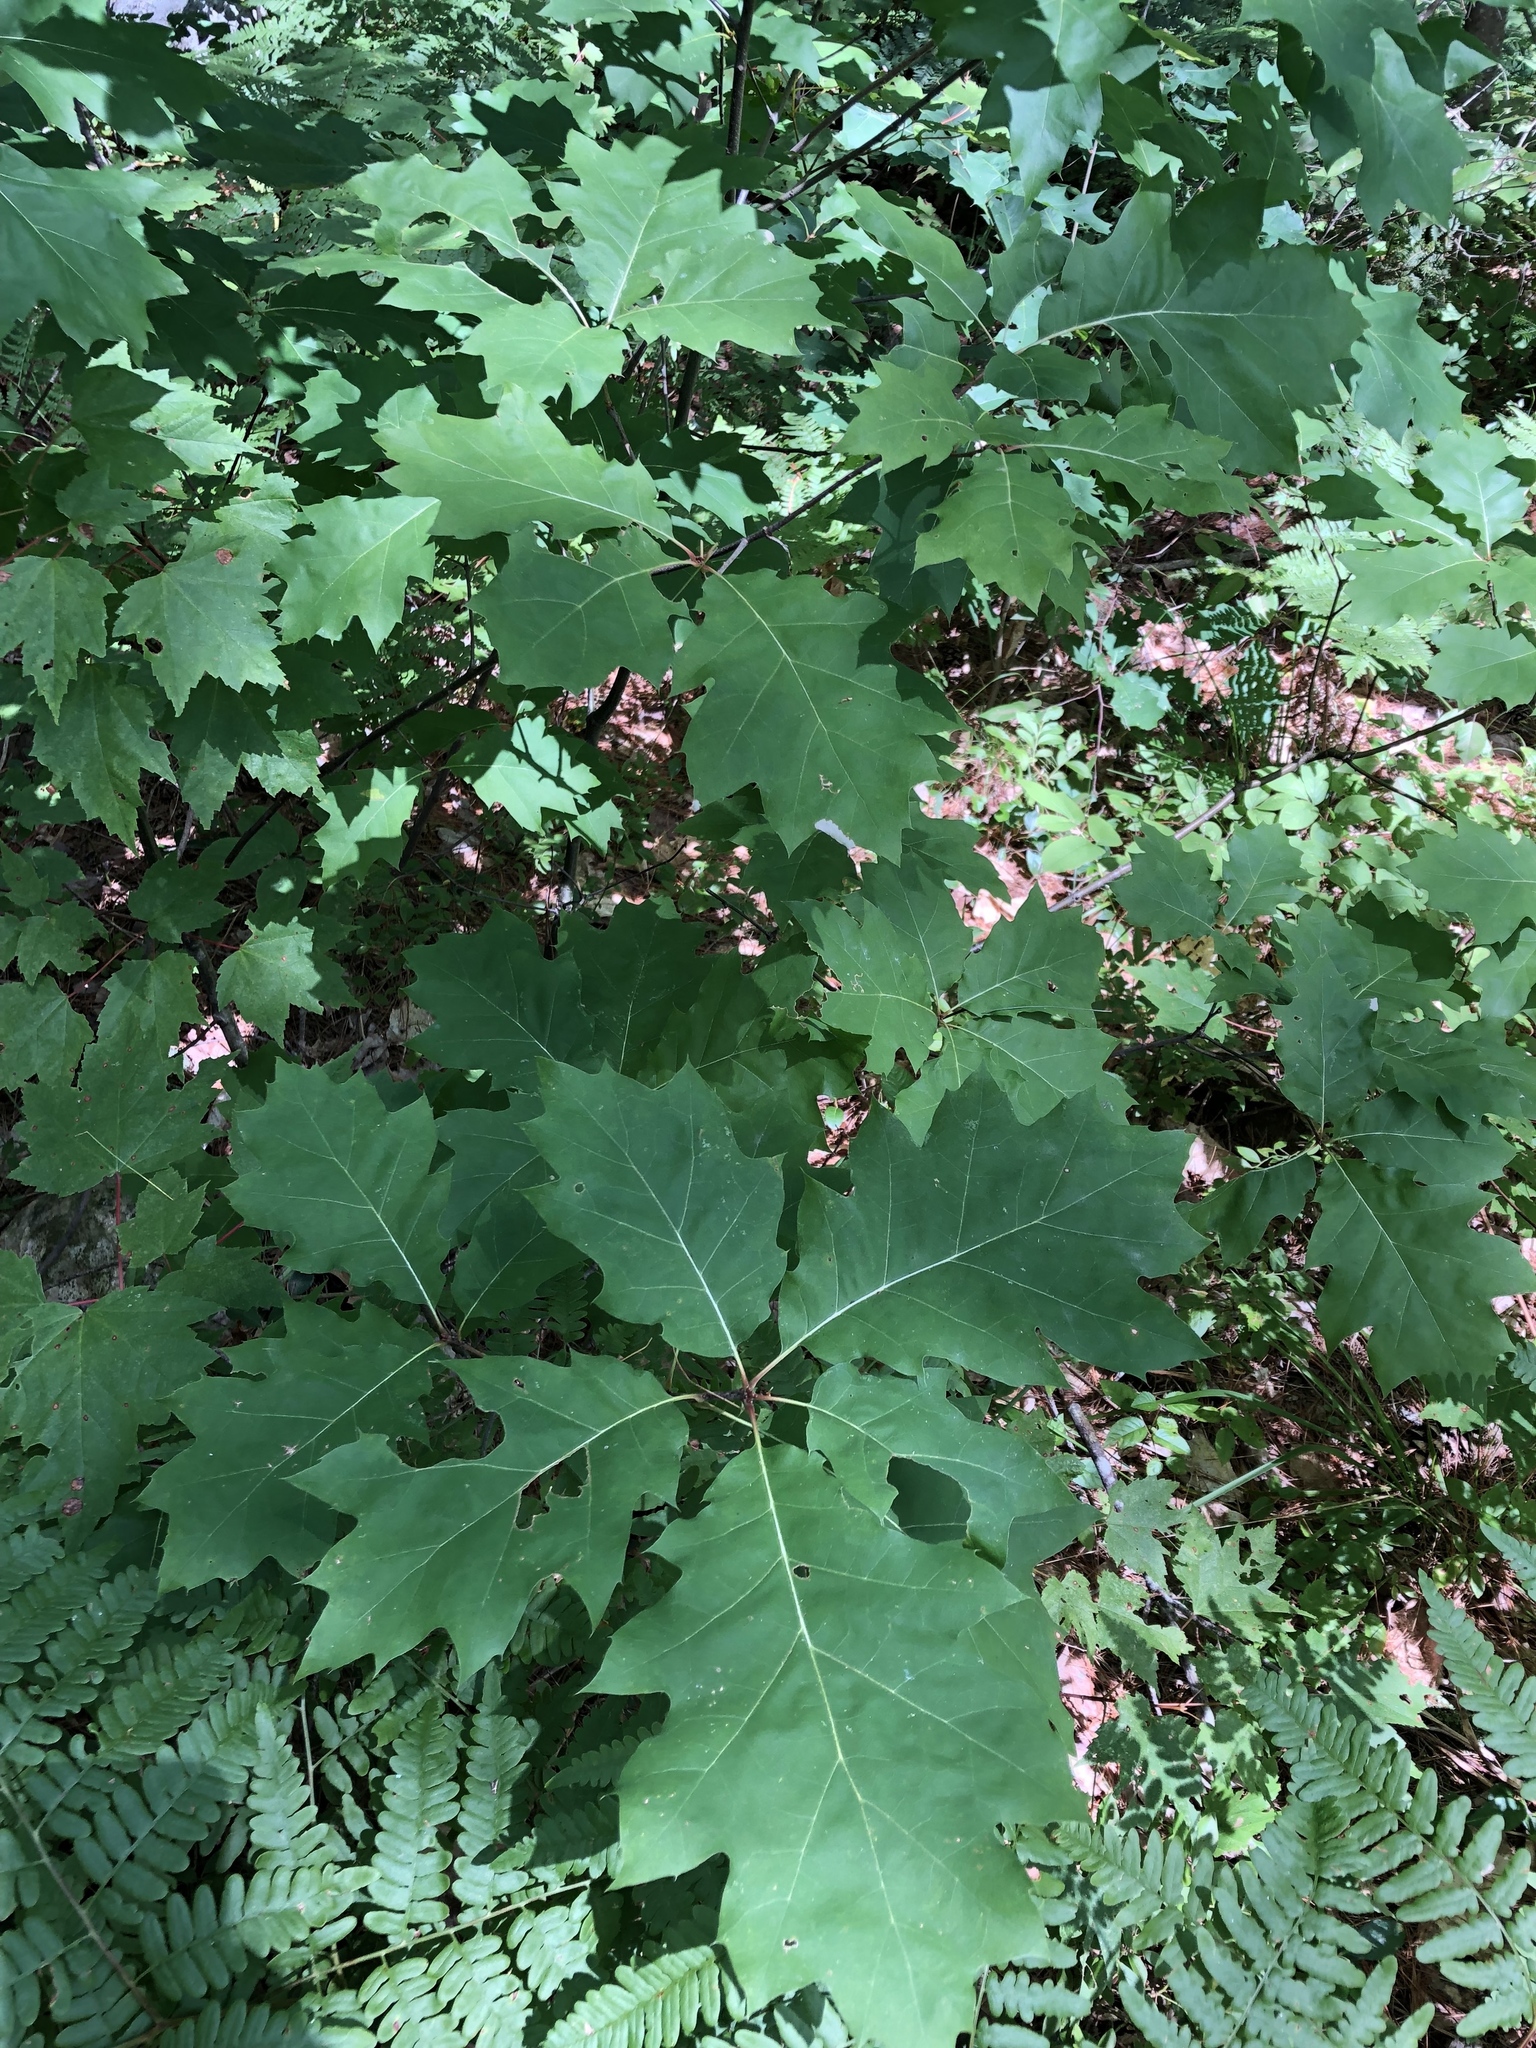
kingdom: Plantae
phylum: Tracheophyta
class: Magnoliopsida
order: Fagales
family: Fagaceae
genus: Quercus
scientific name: Quercus rubra
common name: Red oak
